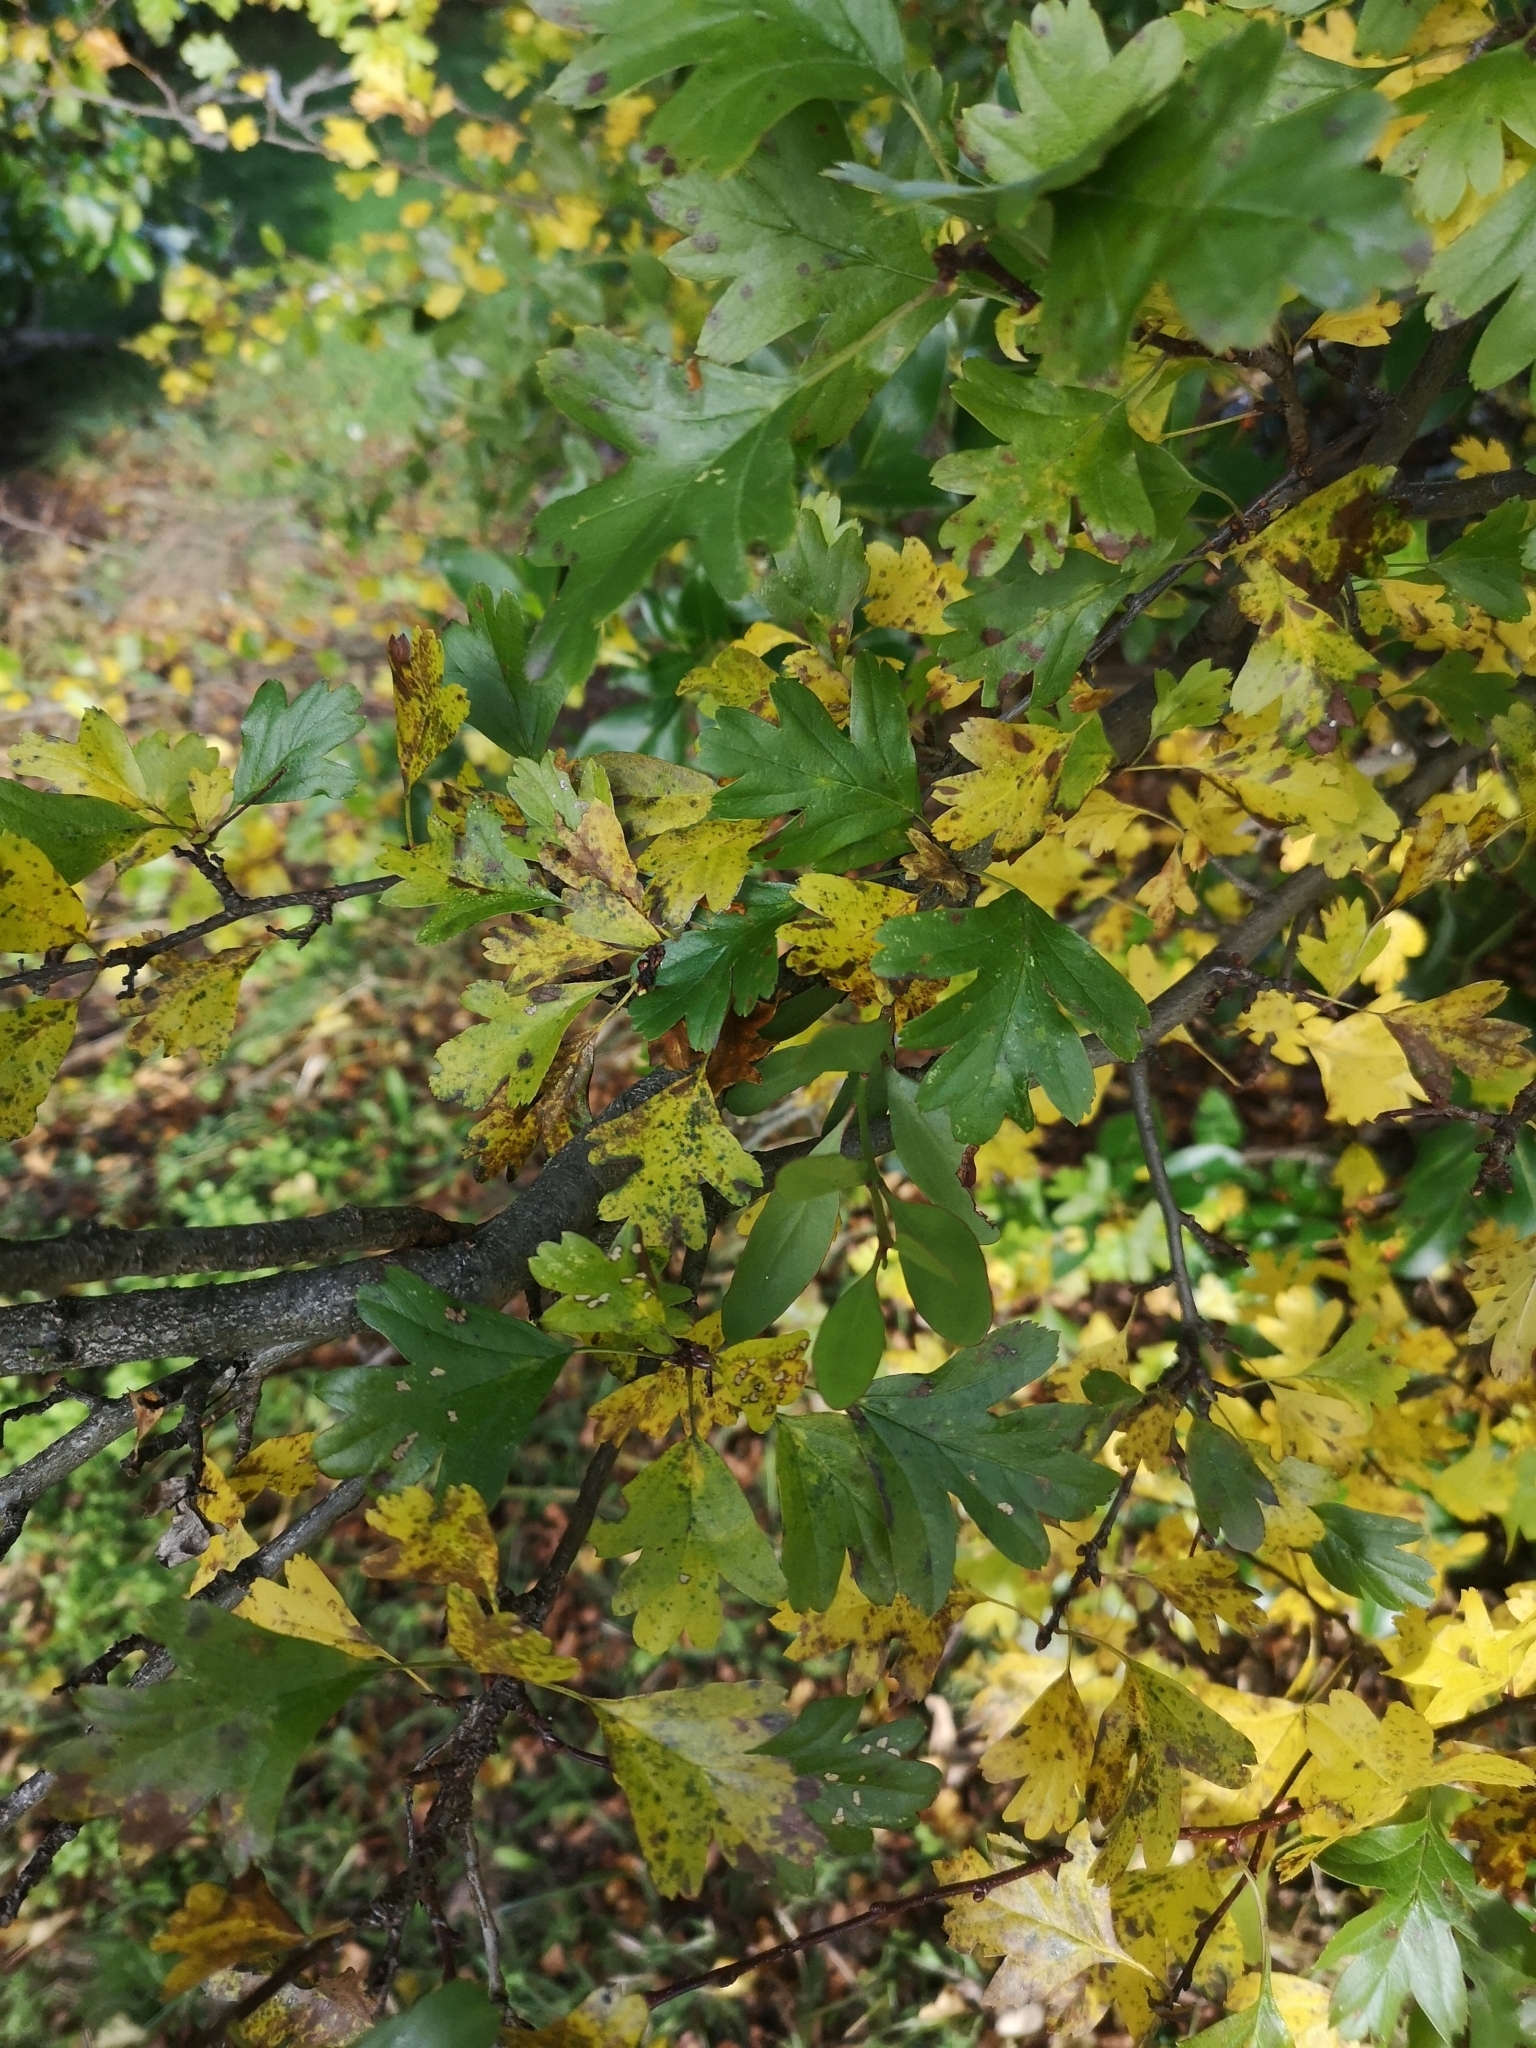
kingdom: Plantae
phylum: Tracheophyta
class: Magnoliopsida
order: Rosales
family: Rosaceae
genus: Crataegus
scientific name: Crataegus monogyna
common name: Hawthorn
